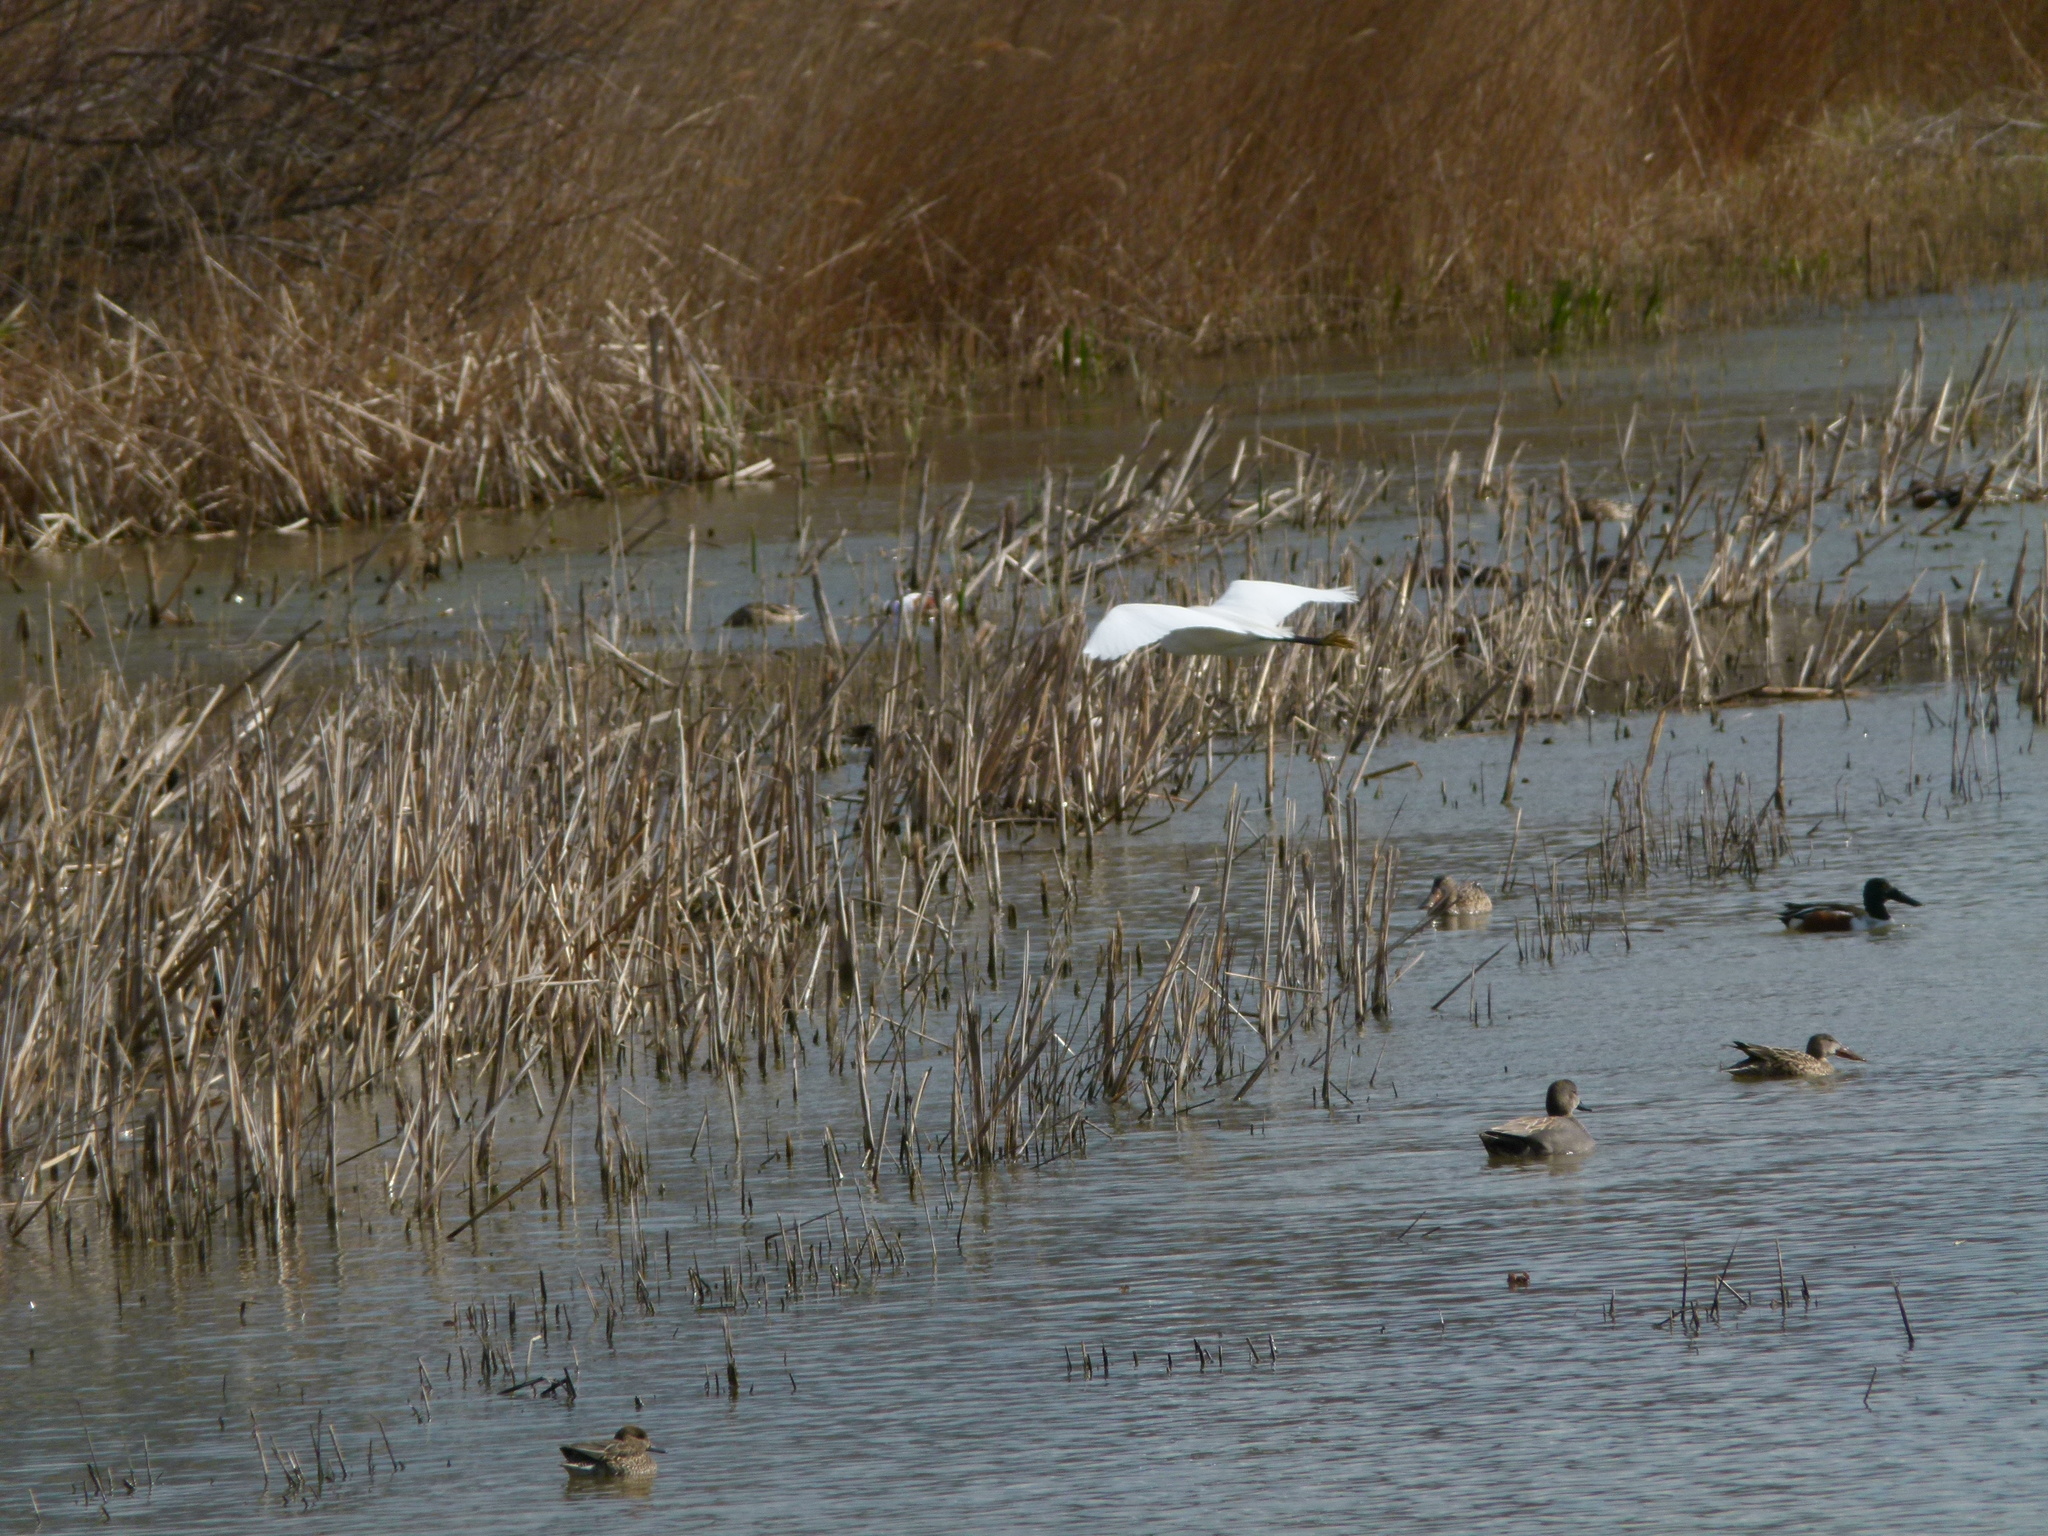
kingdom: Animalia
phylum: Chordata
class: Aves
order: Pelecaniformes
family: Ardeidae
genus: Egretta
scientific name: Egretta garzetta
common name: Little egret
